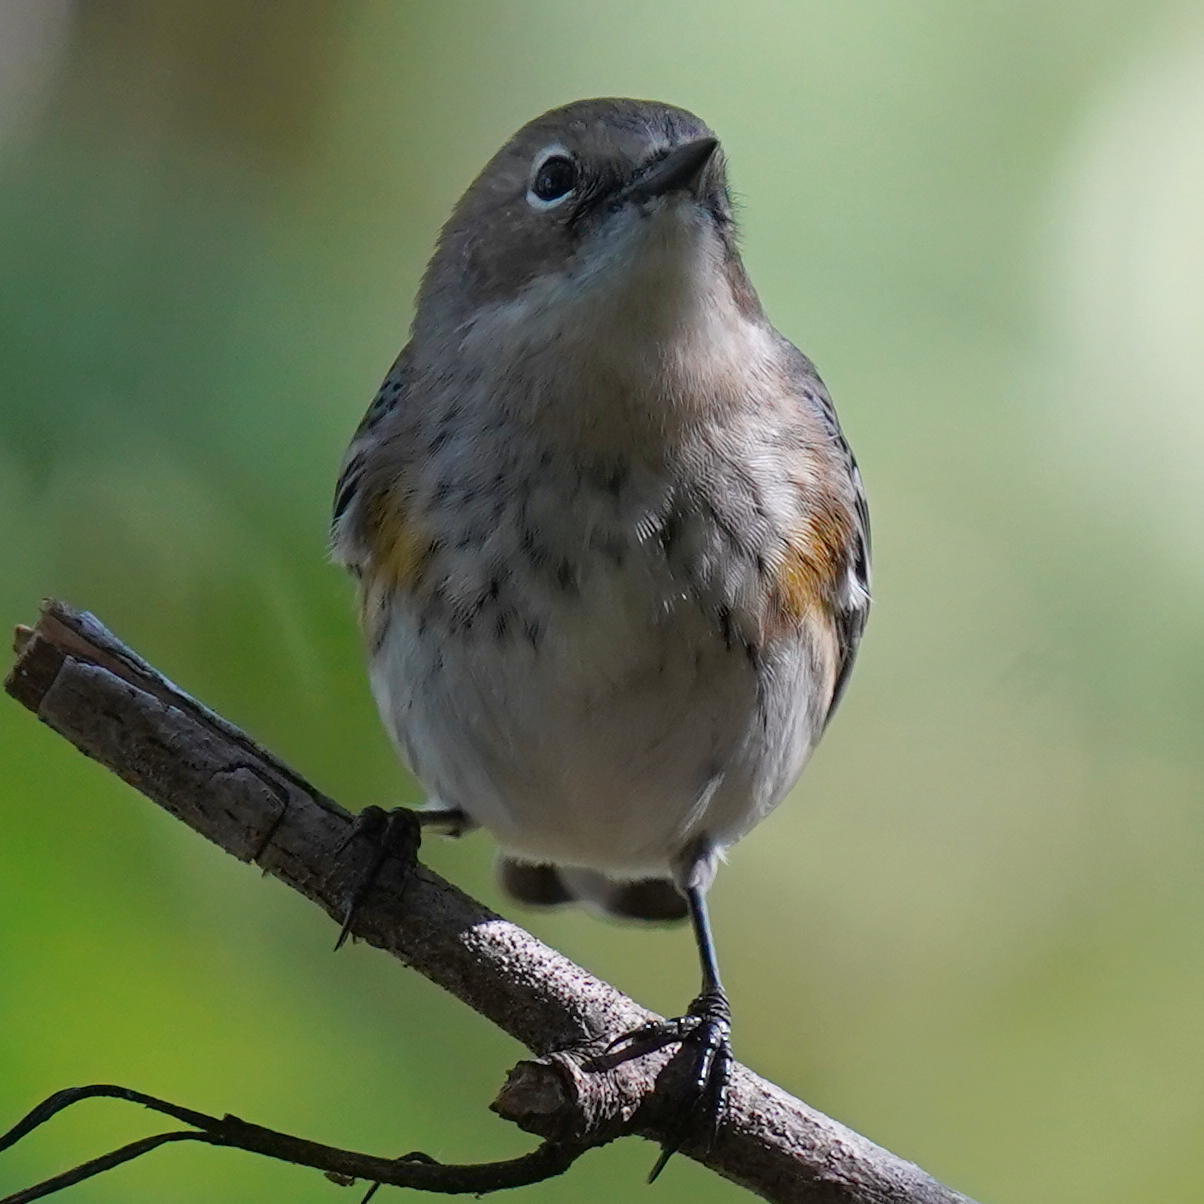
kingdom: Animalia
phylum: Chordata
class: Aves
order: Passeriformes
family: Parulidae
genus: Setophaga
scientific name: Setophaga coronata
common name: Myrtle warbler
